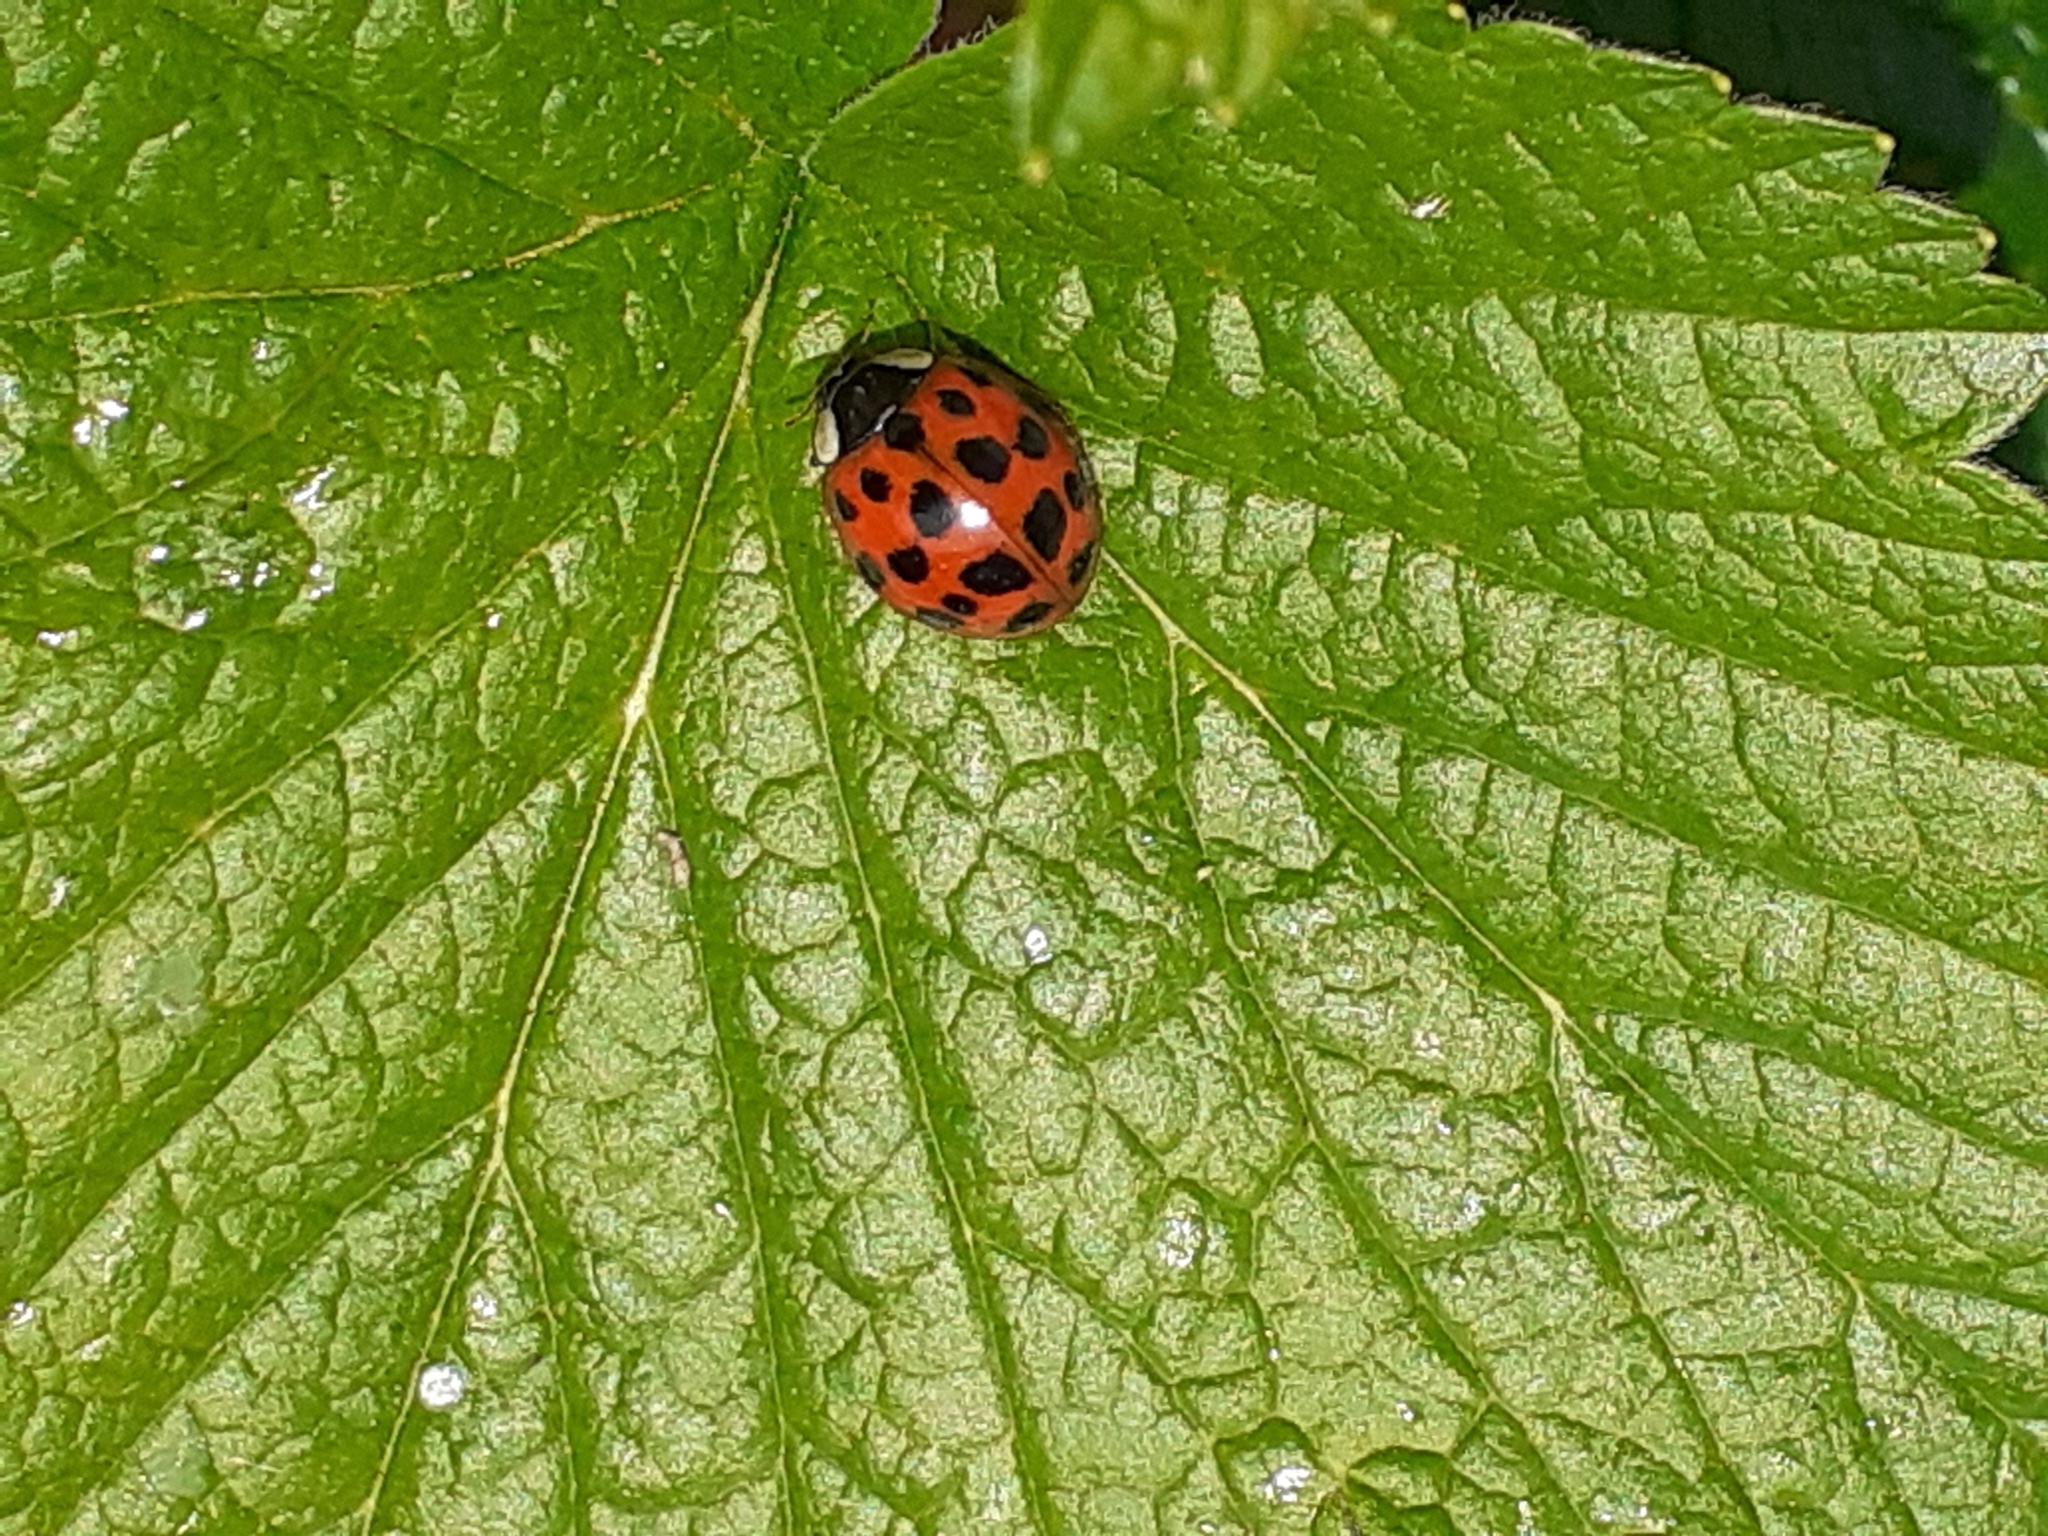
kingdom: Animalia
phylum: Arthropoda
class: Insecta
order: Coleoptera
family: Coccinellidae
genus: Harmonia
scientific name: Harmonia axyridis
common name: Harlequin ladybird
